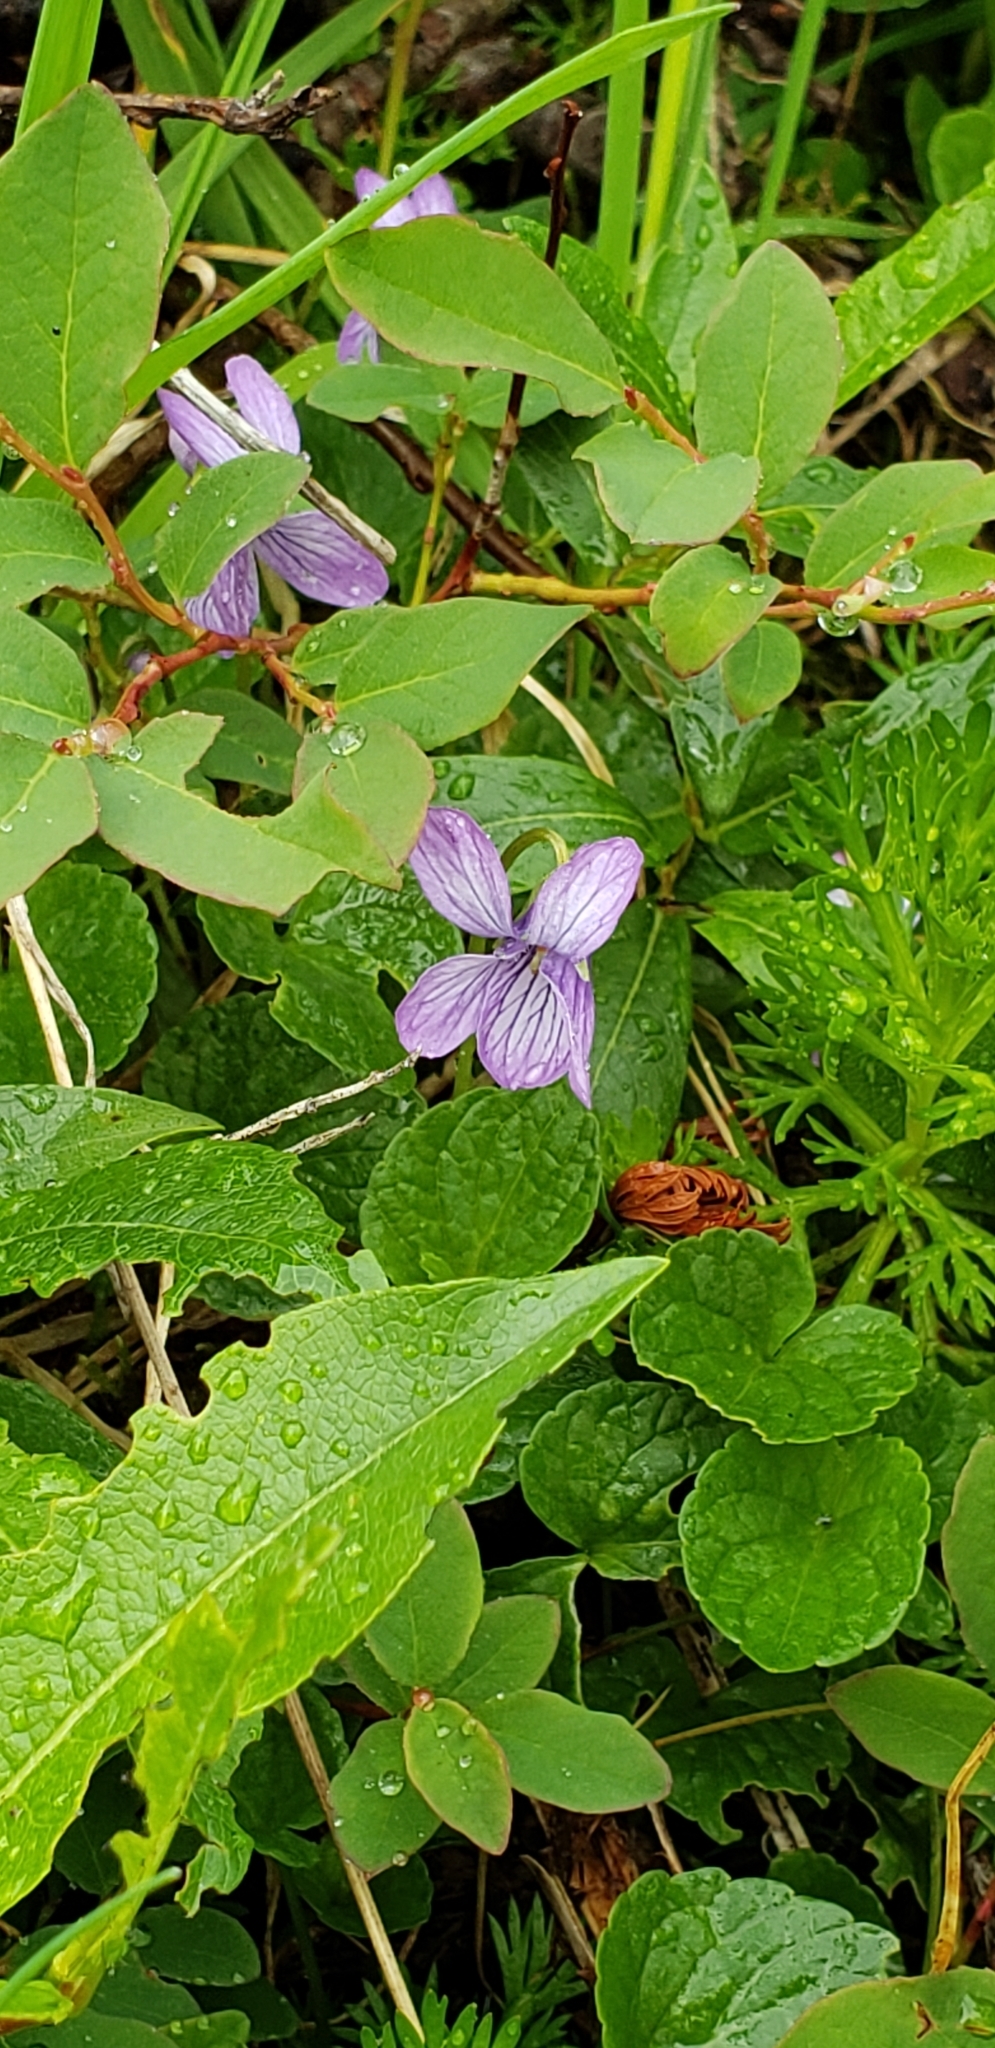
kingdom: Plantae
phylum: Tracheophyta
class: Magnoliopsida
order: Malpighiales
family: Violaceae
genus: Viola
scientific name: Viola langsdorffii
